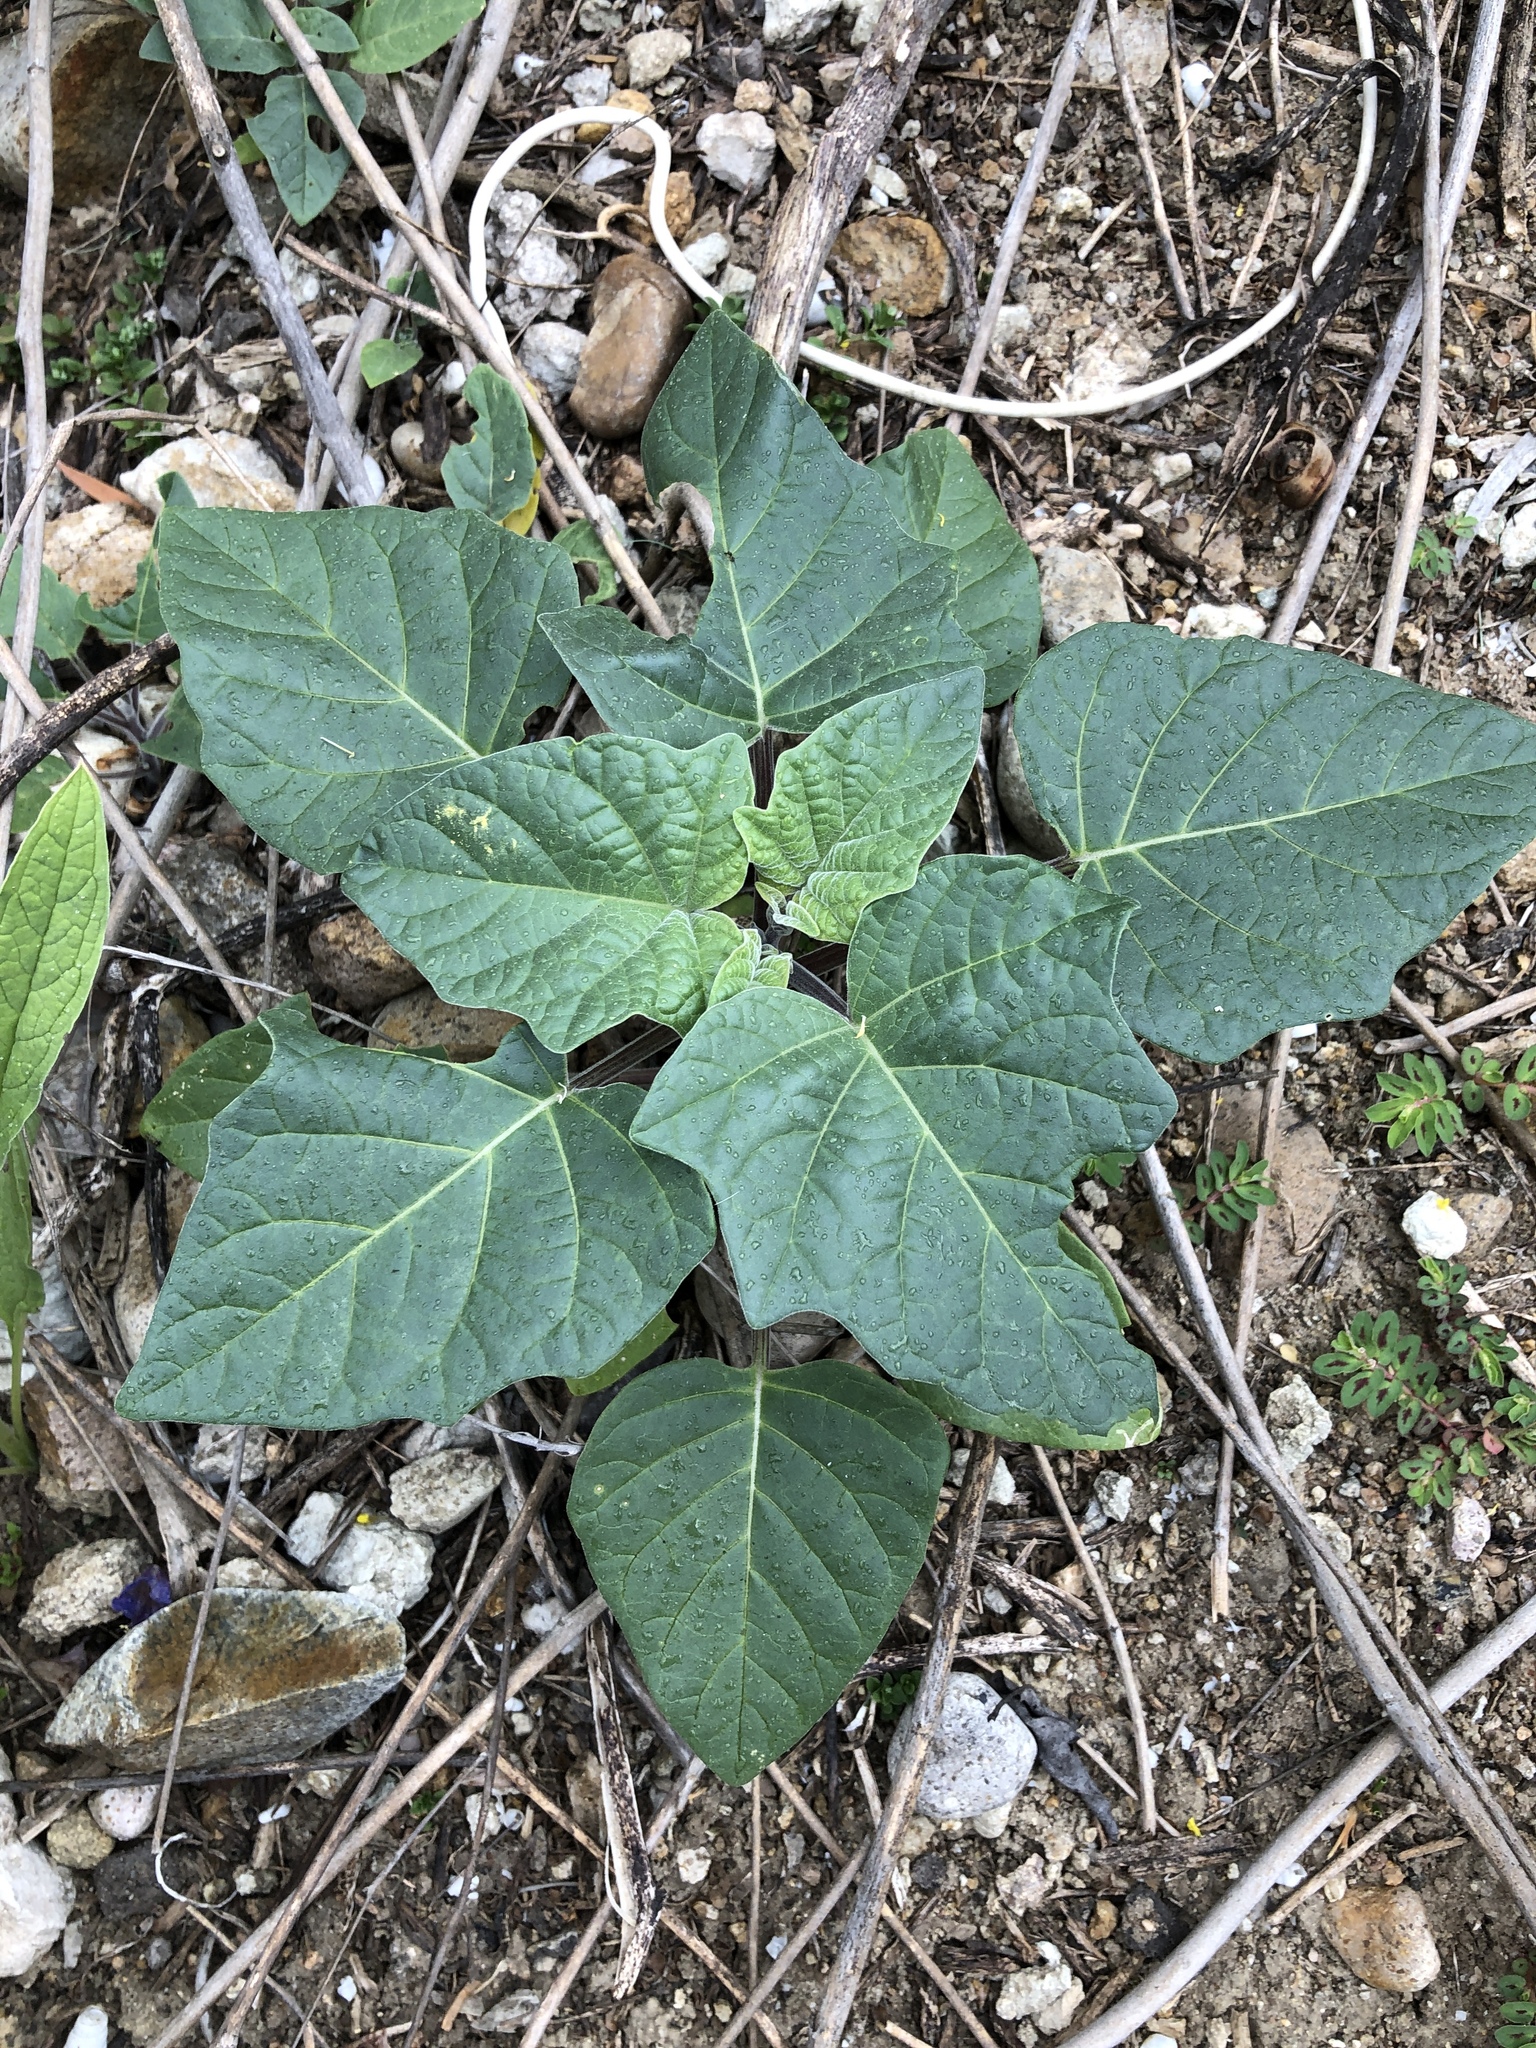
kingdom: Plantae
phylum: Tracheophyta
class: Magnoliopsida
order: Solanales
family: Solanaceae
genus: Datura
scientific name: Datura wrightii
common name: Sacred thorn-apple
